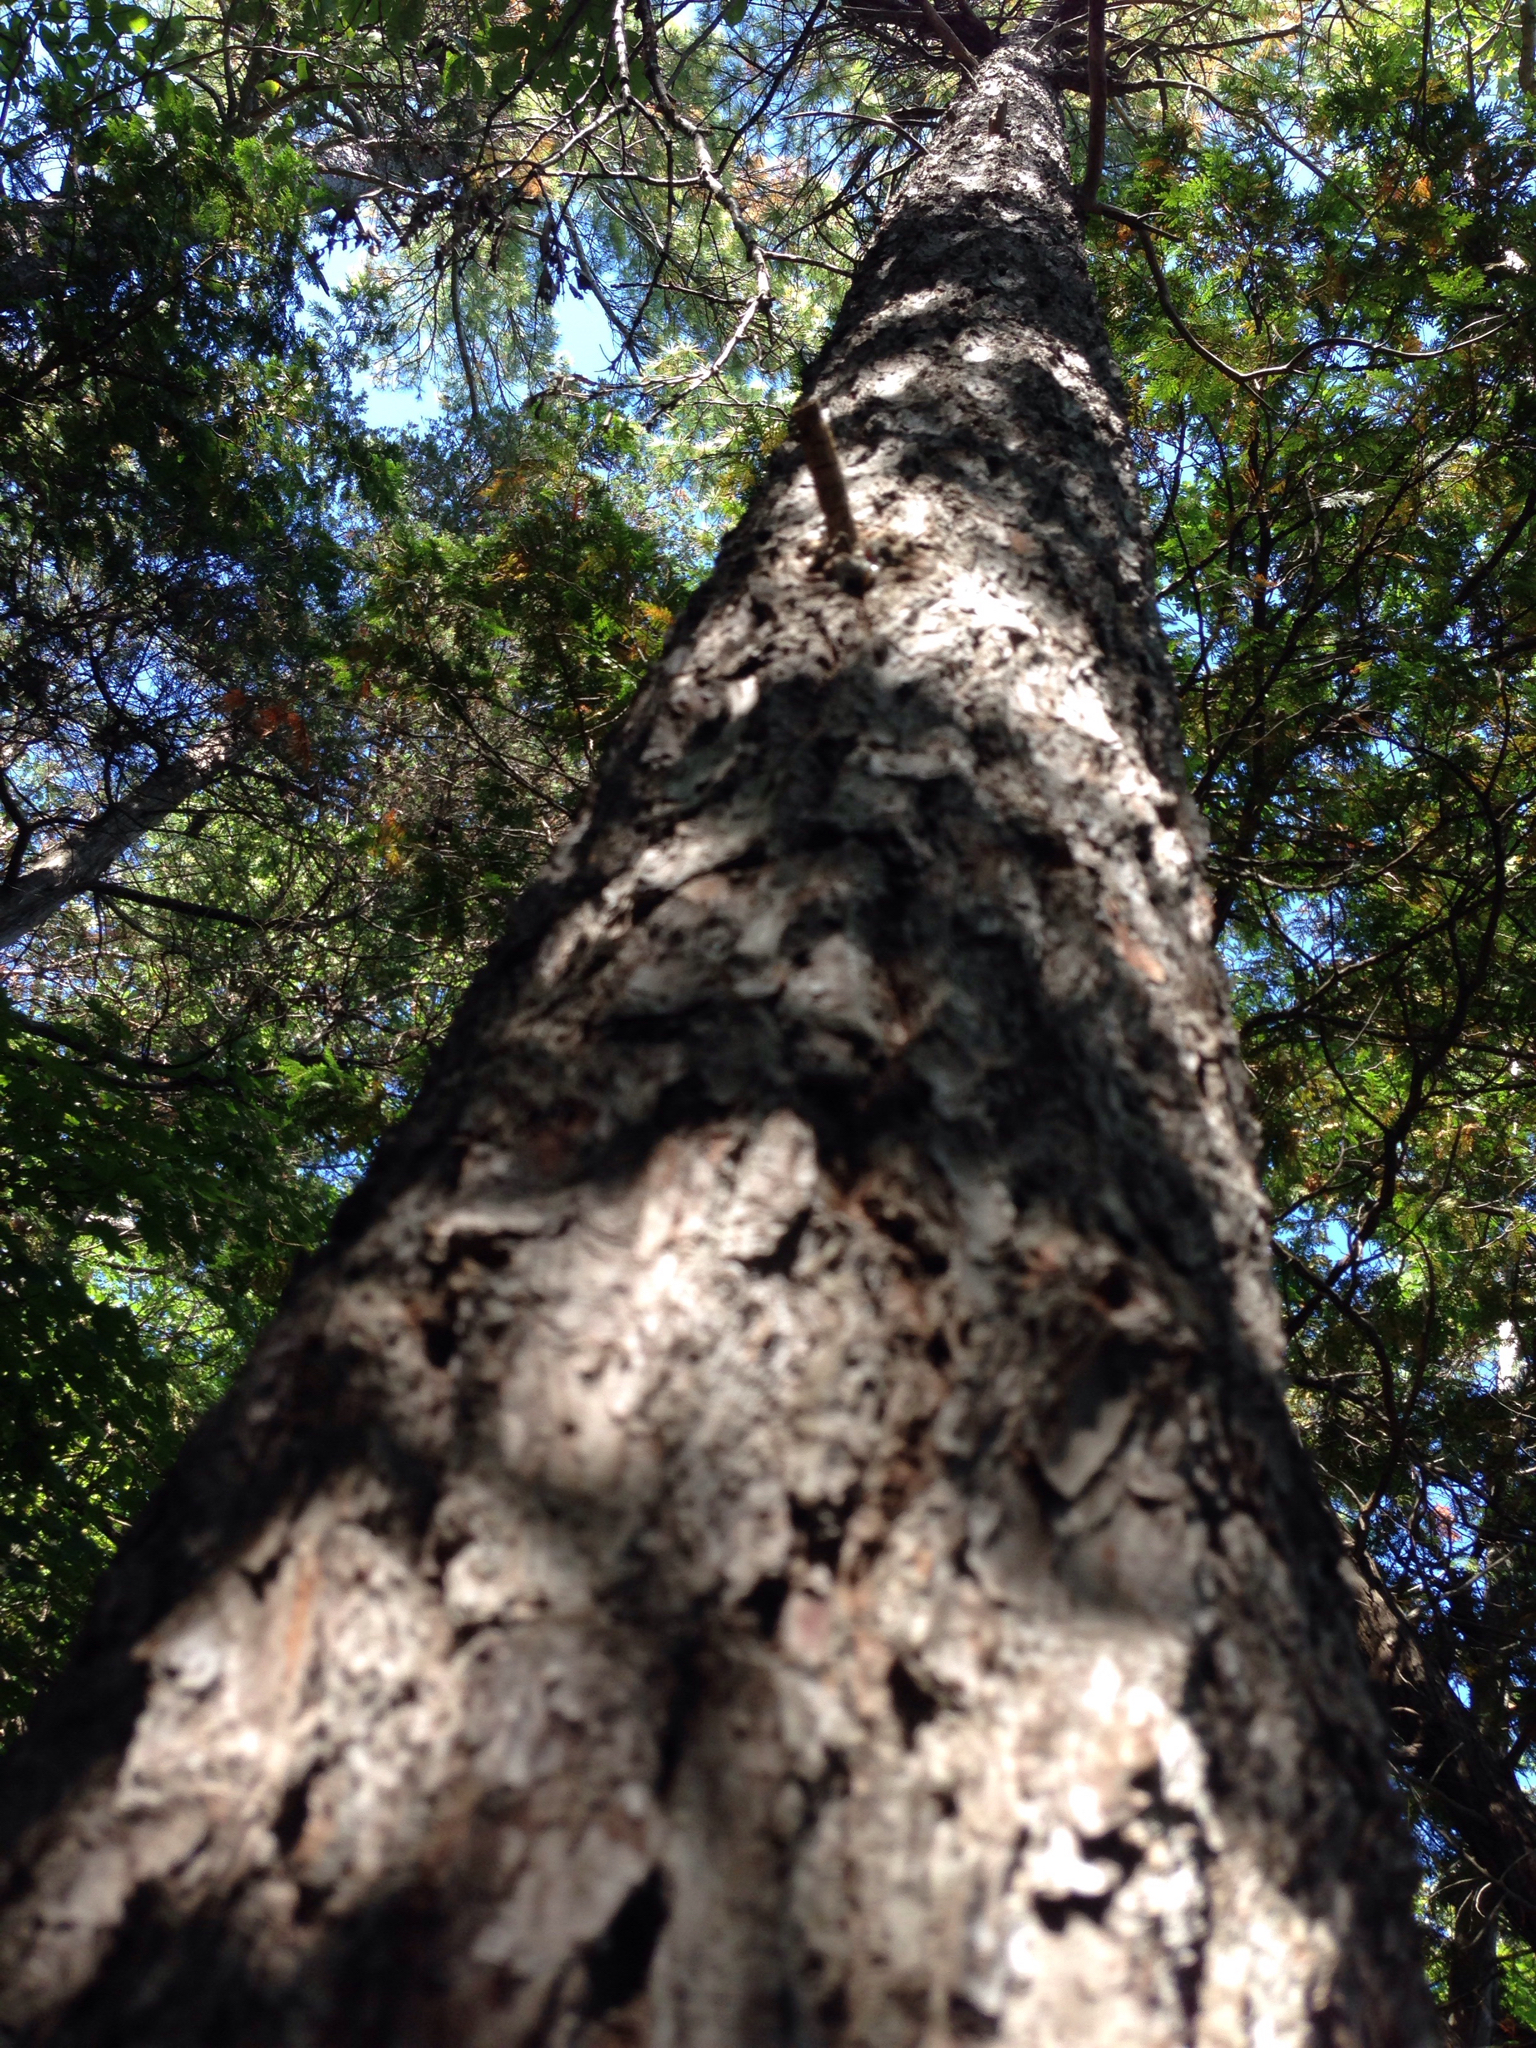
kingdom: Plantae
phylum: Tracheophyta
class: Pinopsida
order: Pinales
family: Pinaceae
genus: Pinus
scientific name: Pinus strobus
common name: Weymouth pine
